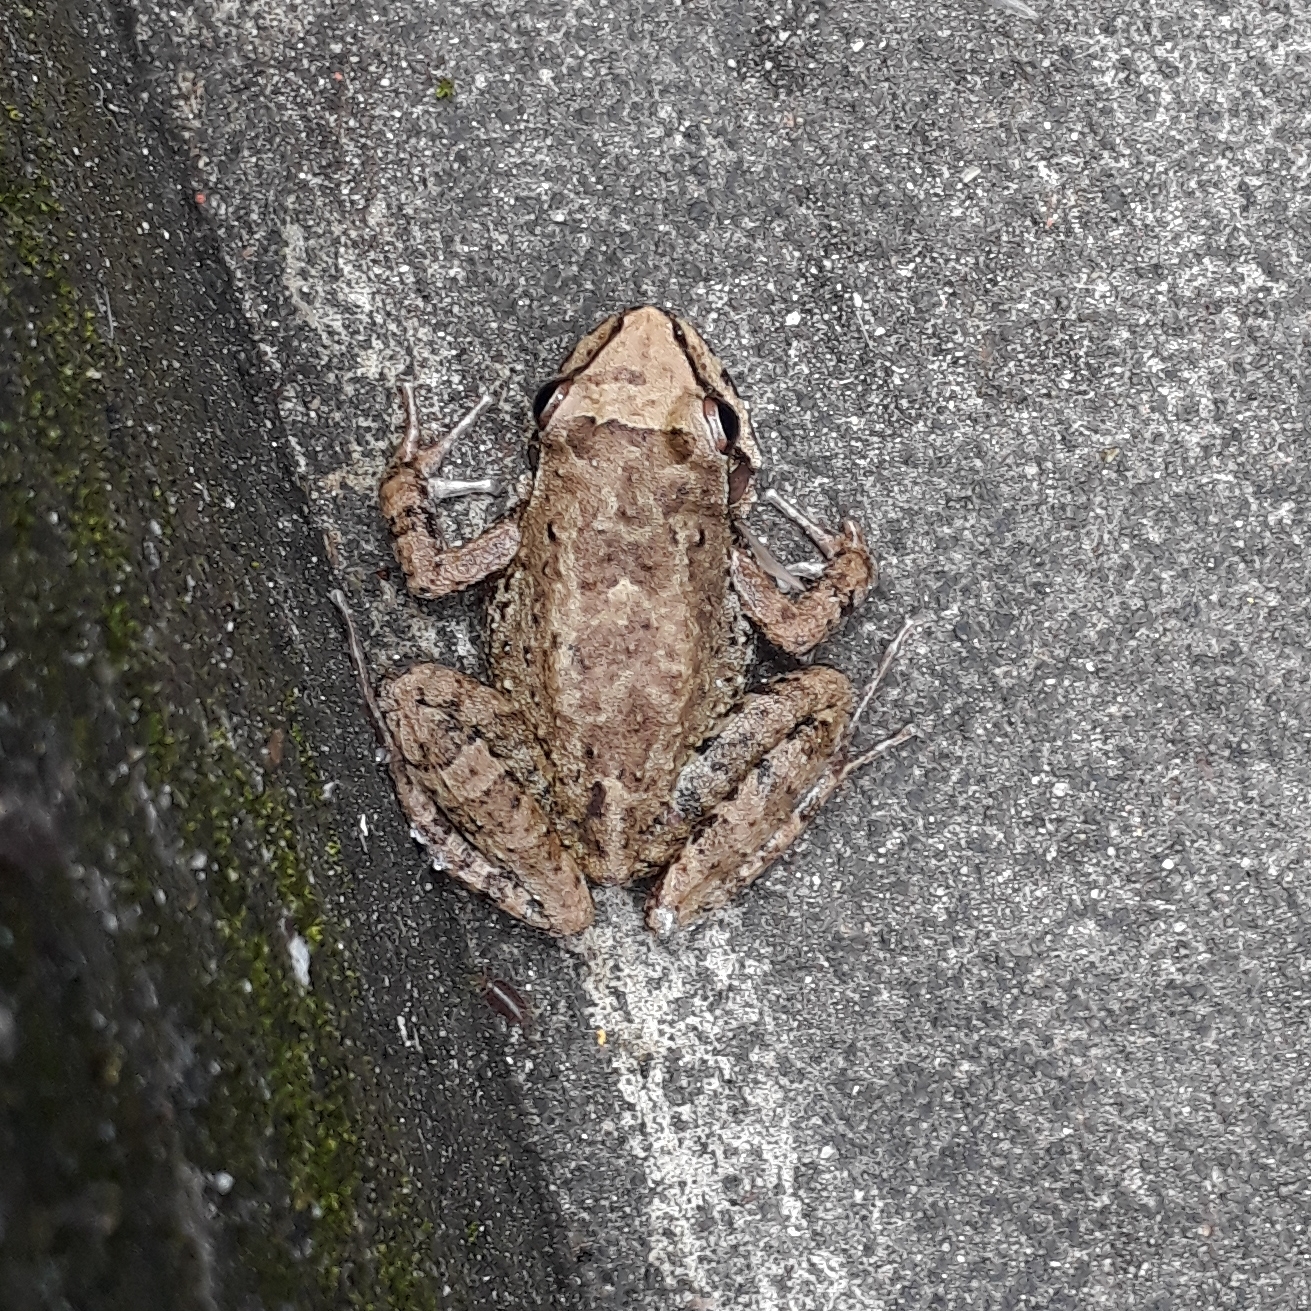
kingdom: Animalia
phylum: Chordata
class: Amphibia
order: Anura
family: Cycloramphidae
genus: Thoropa
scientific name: Thoropa miliaris
